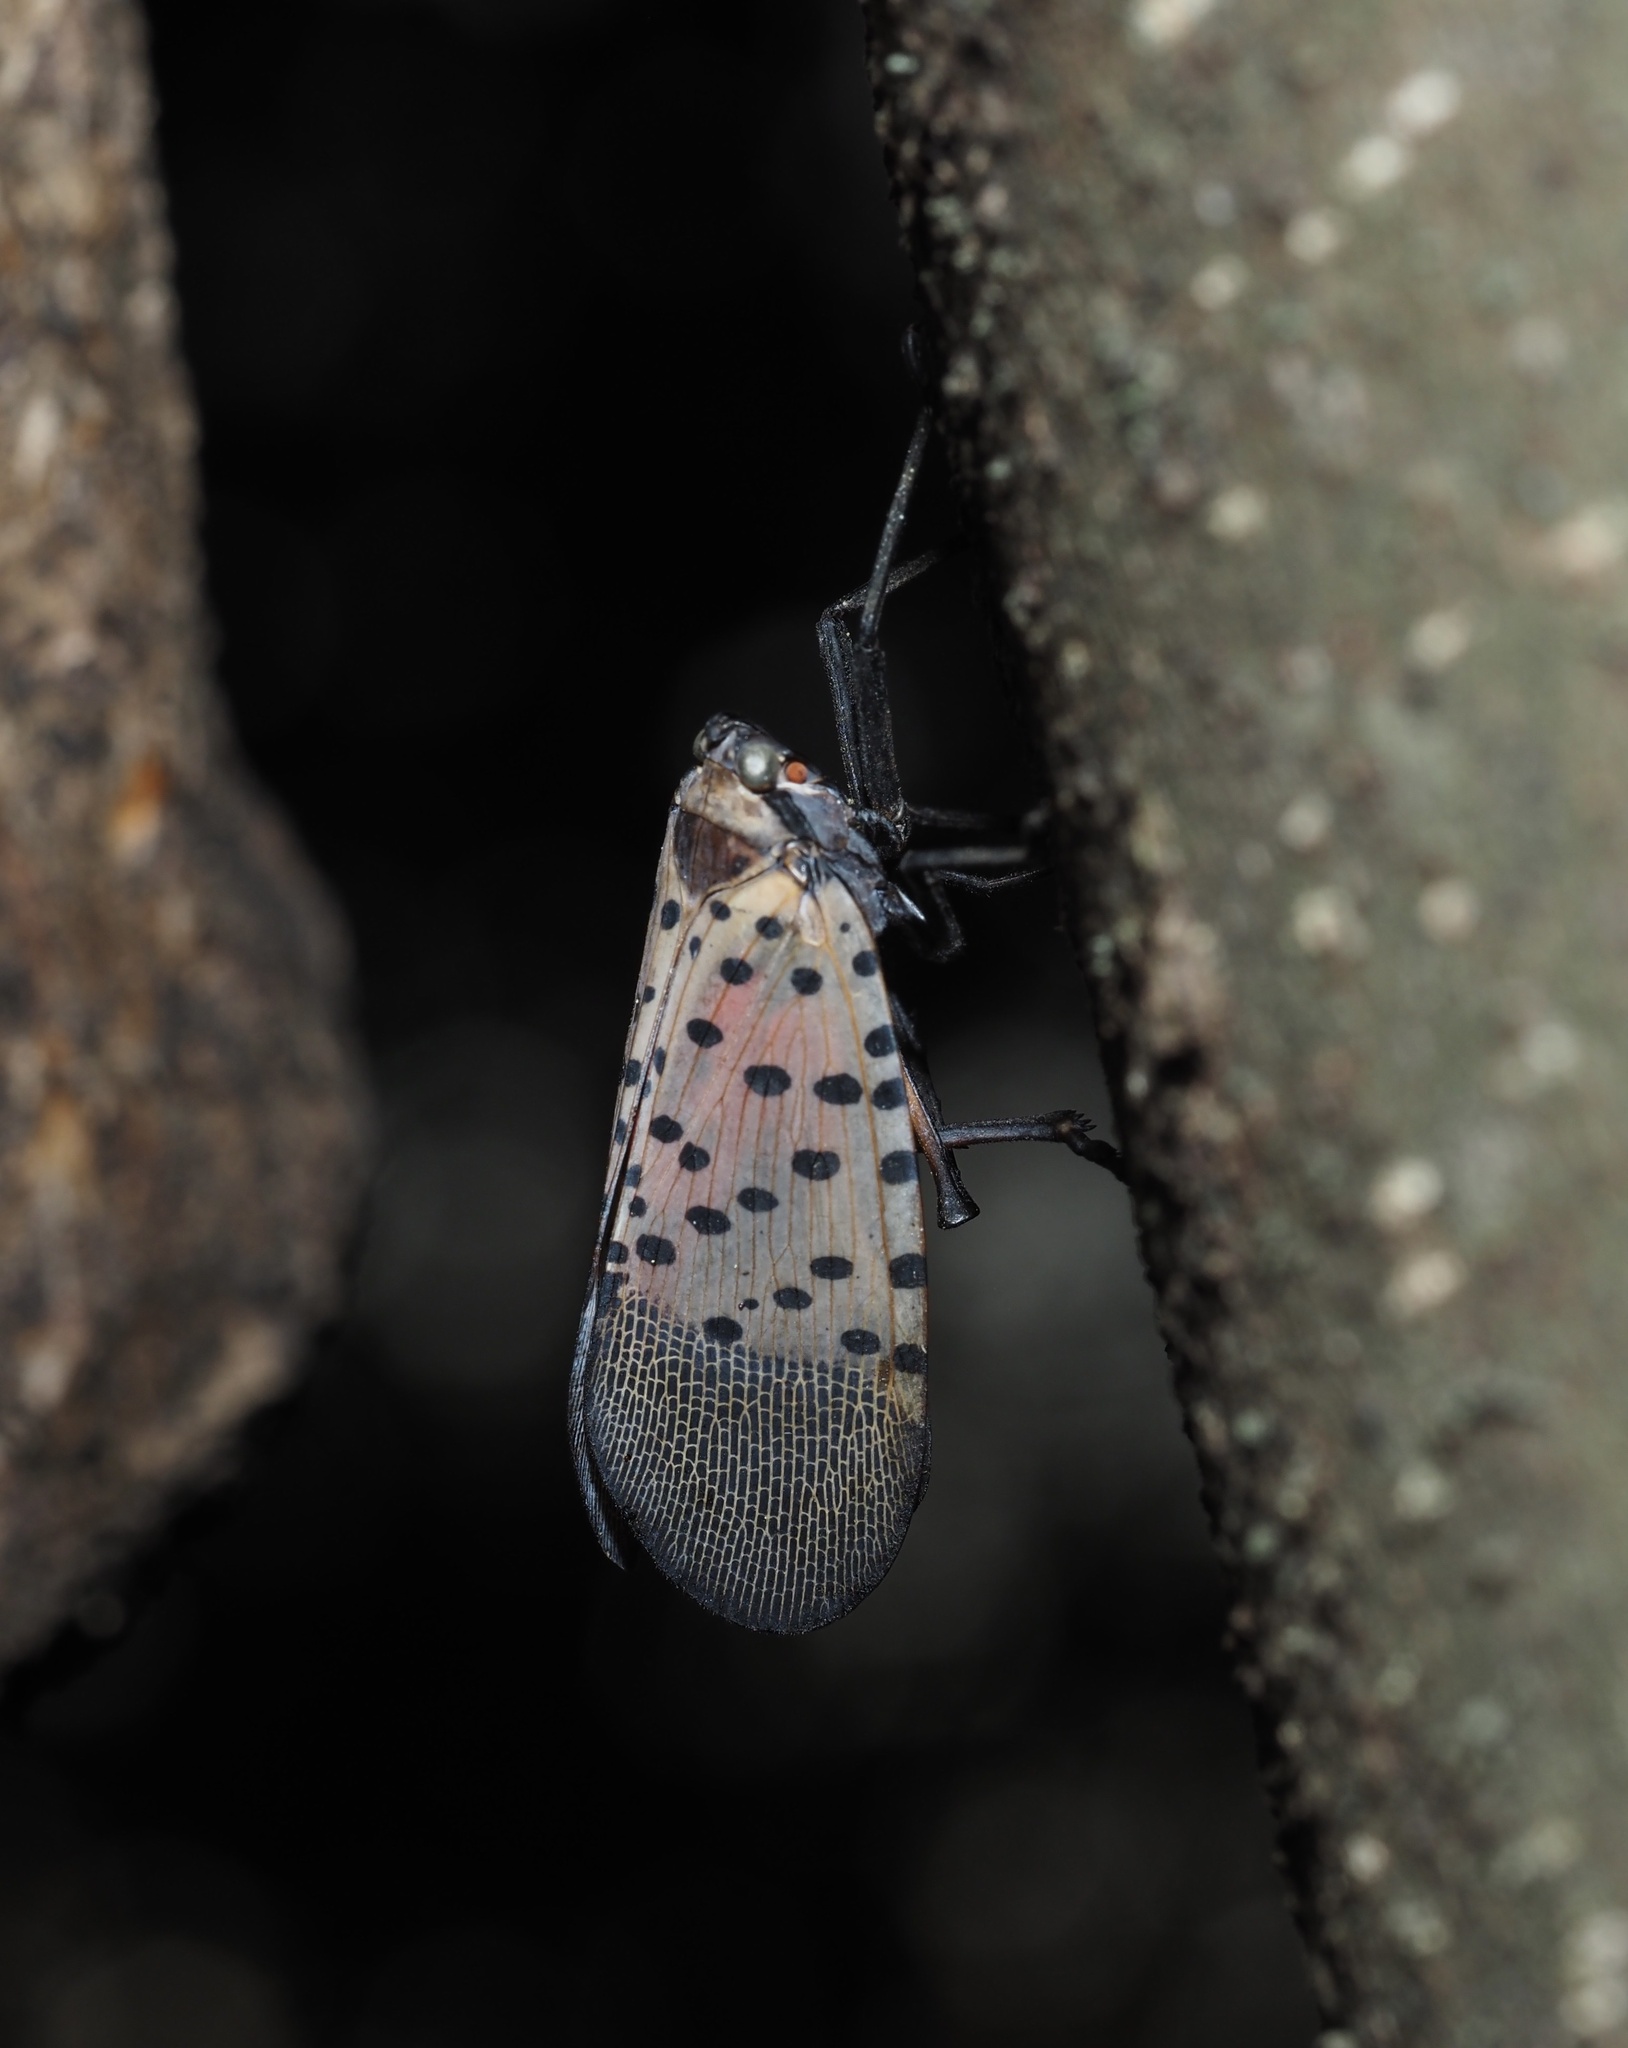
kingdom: Animalia
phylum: Arthropoda
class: Insecta
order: Hemiptera
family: Fulgoridae
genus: Lycorma
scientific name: Lycorma delicatula
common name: Spotted lanternfly
